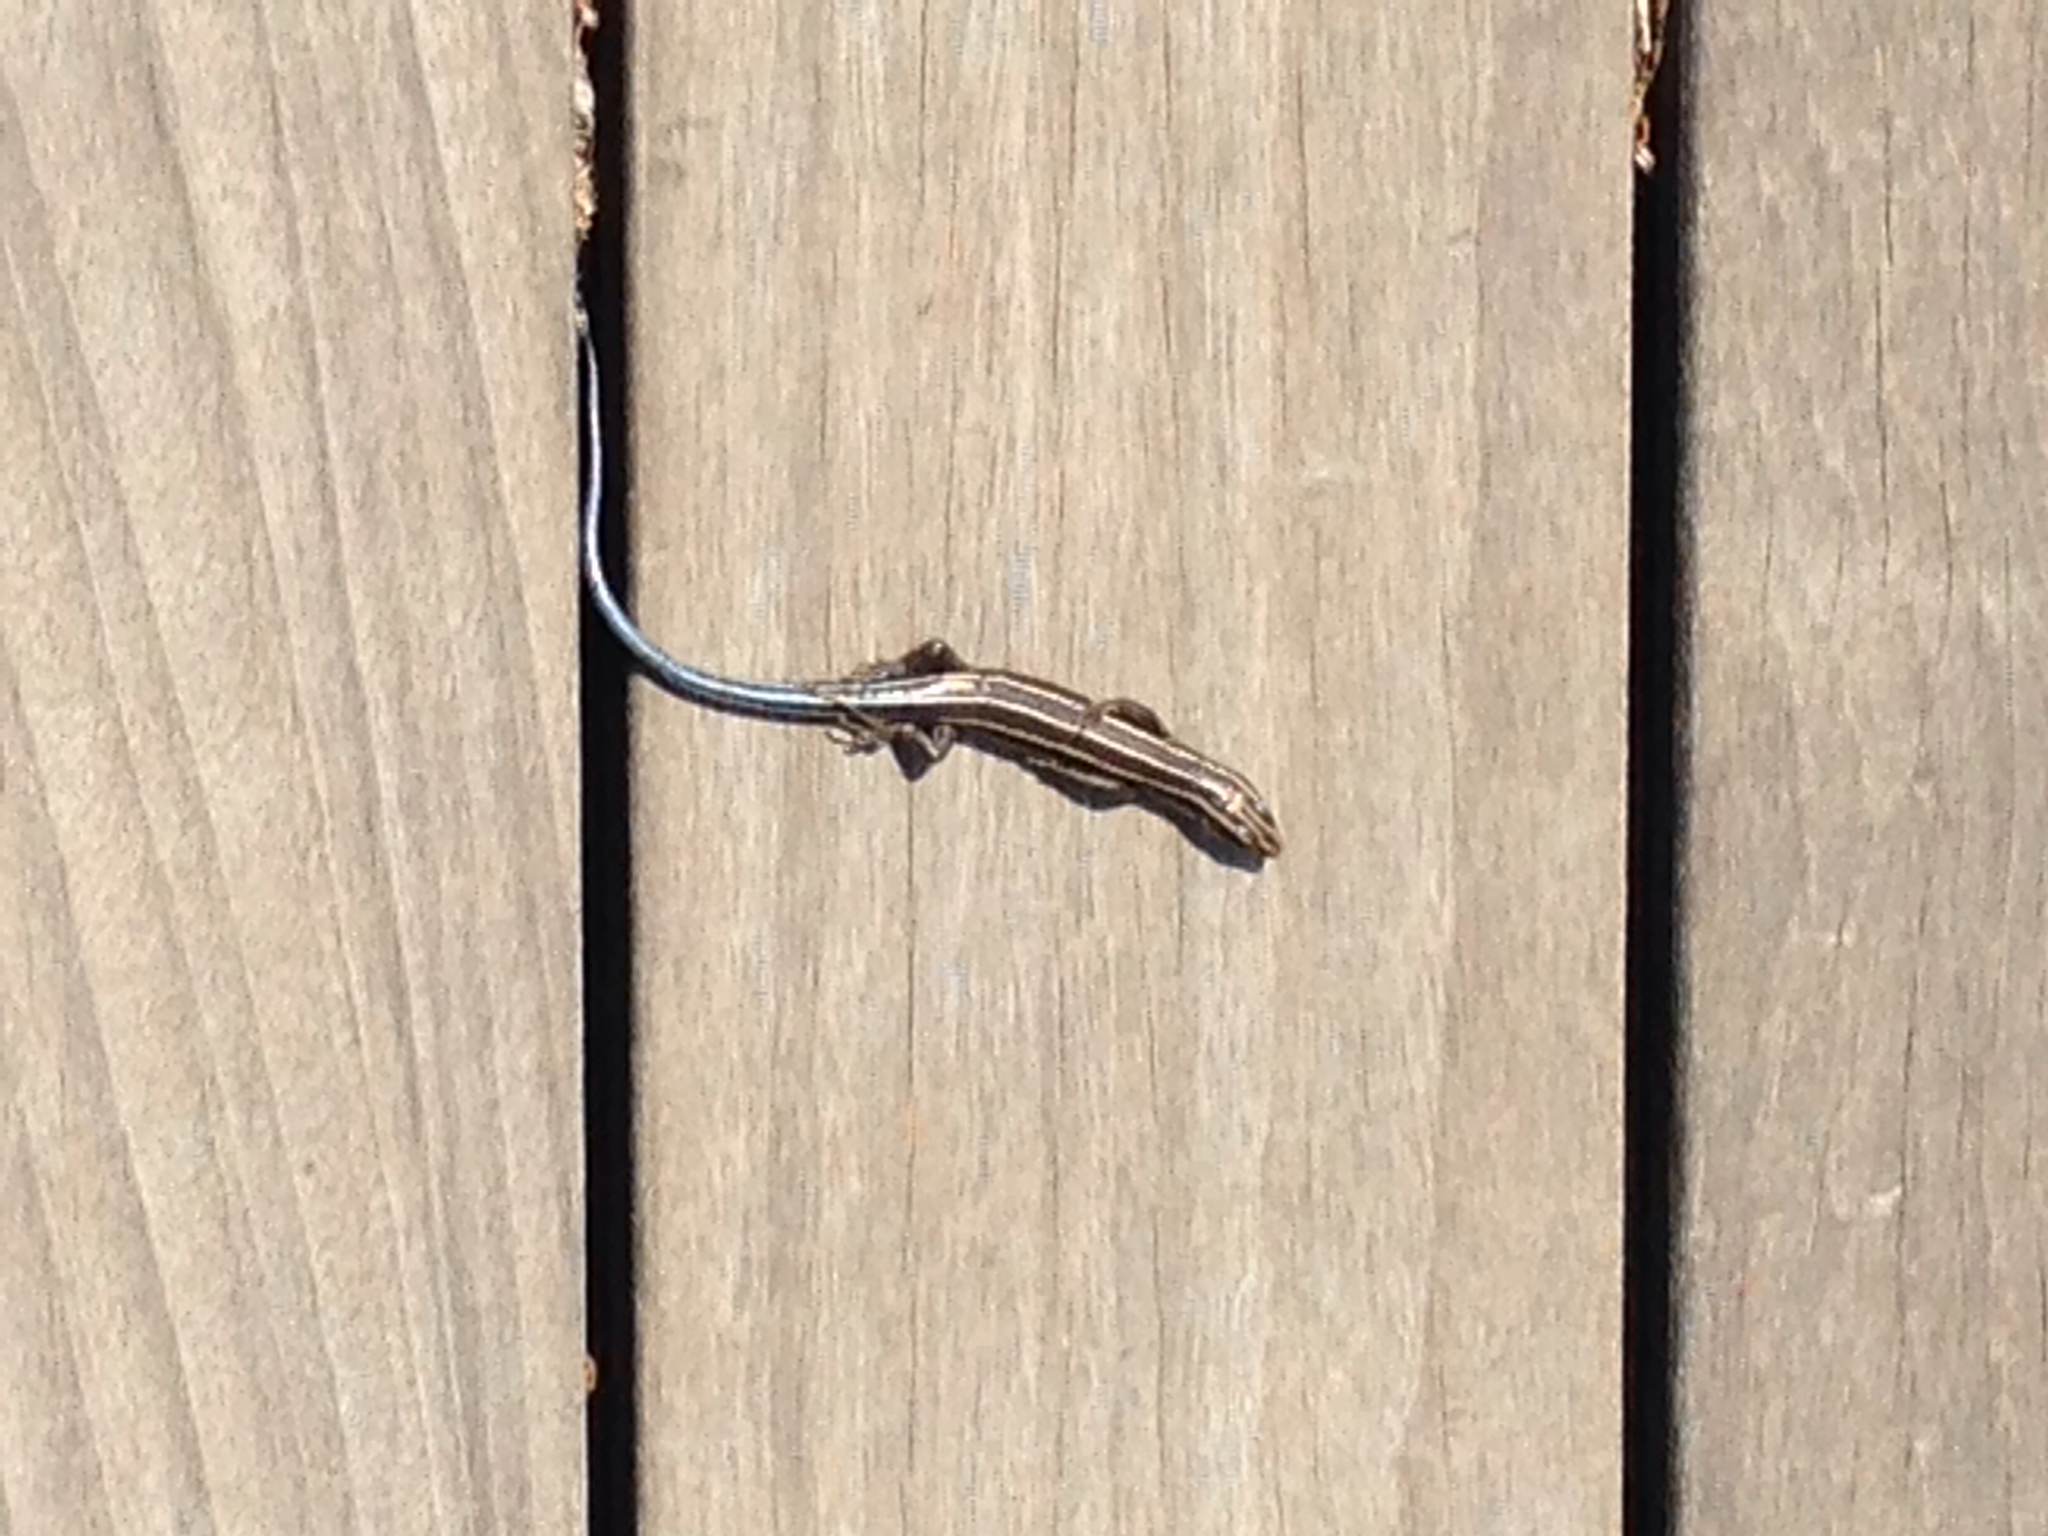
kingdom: Animalia
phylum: Chordata
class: Squamata
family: Scincidae
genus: Plestiodon
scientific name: Plestiodon fasciatus
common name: Five-lined skink
